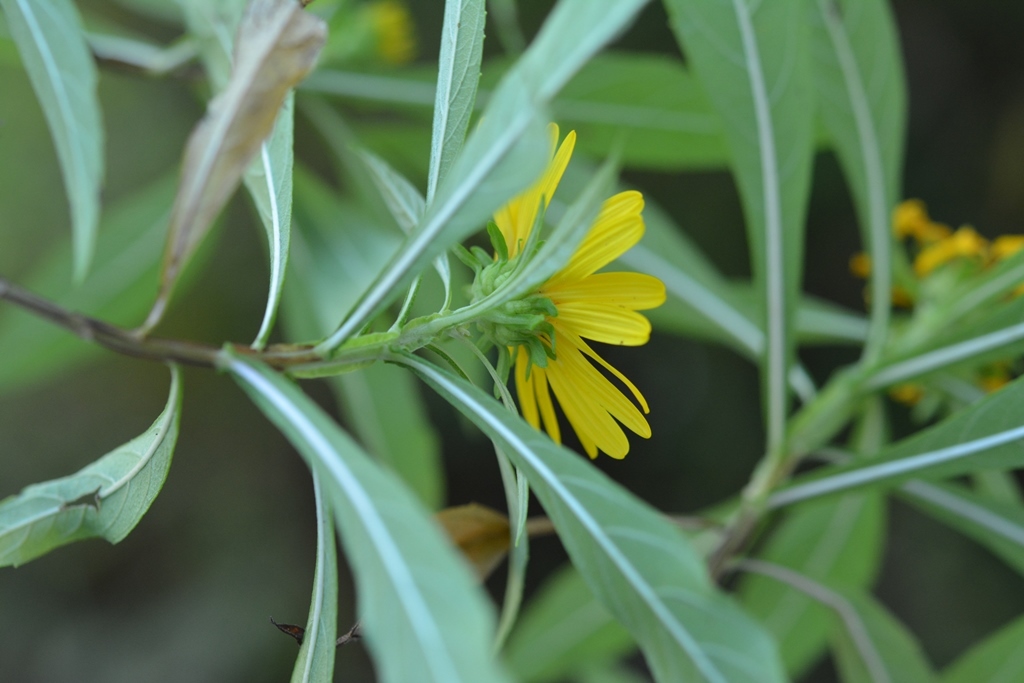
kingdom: Plantae
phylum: Tracheophyta
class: Magnoliopsida
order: Asterales
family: Asteraceae
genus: Verbesina
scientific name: Verbesina neriifolia
